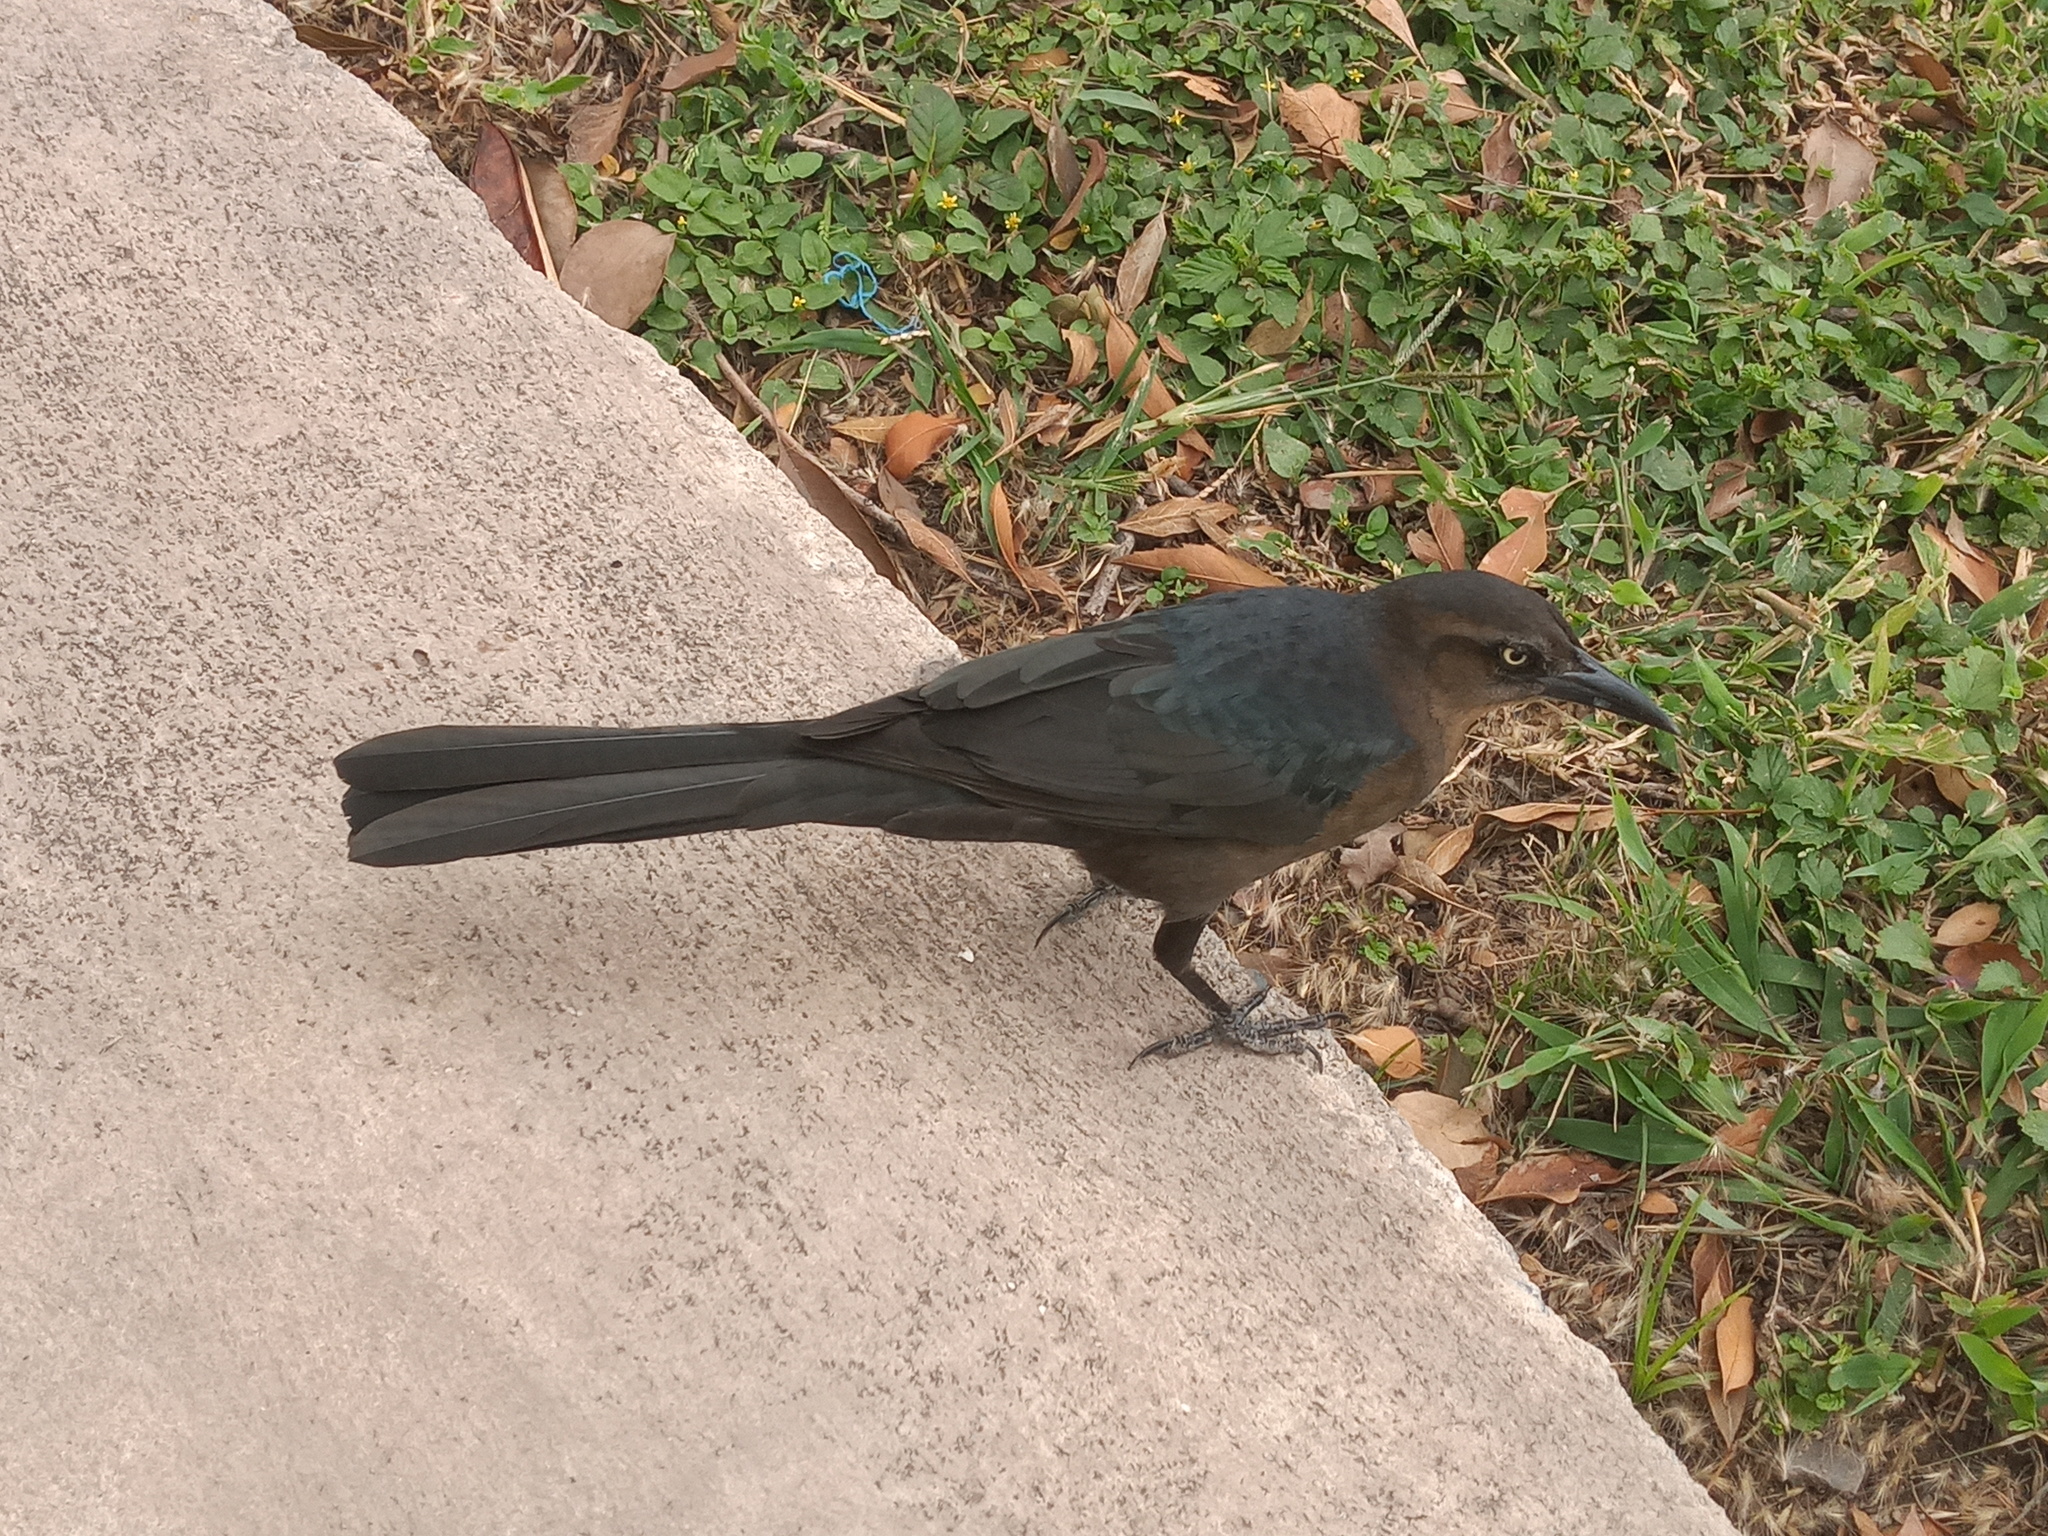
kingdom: Animalia
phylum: Chordata
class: Aves
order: Passeriformes
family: Icteridae
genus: Quiscalus
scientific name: Quiscalus mexicanus
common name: Great-tailed grackle
